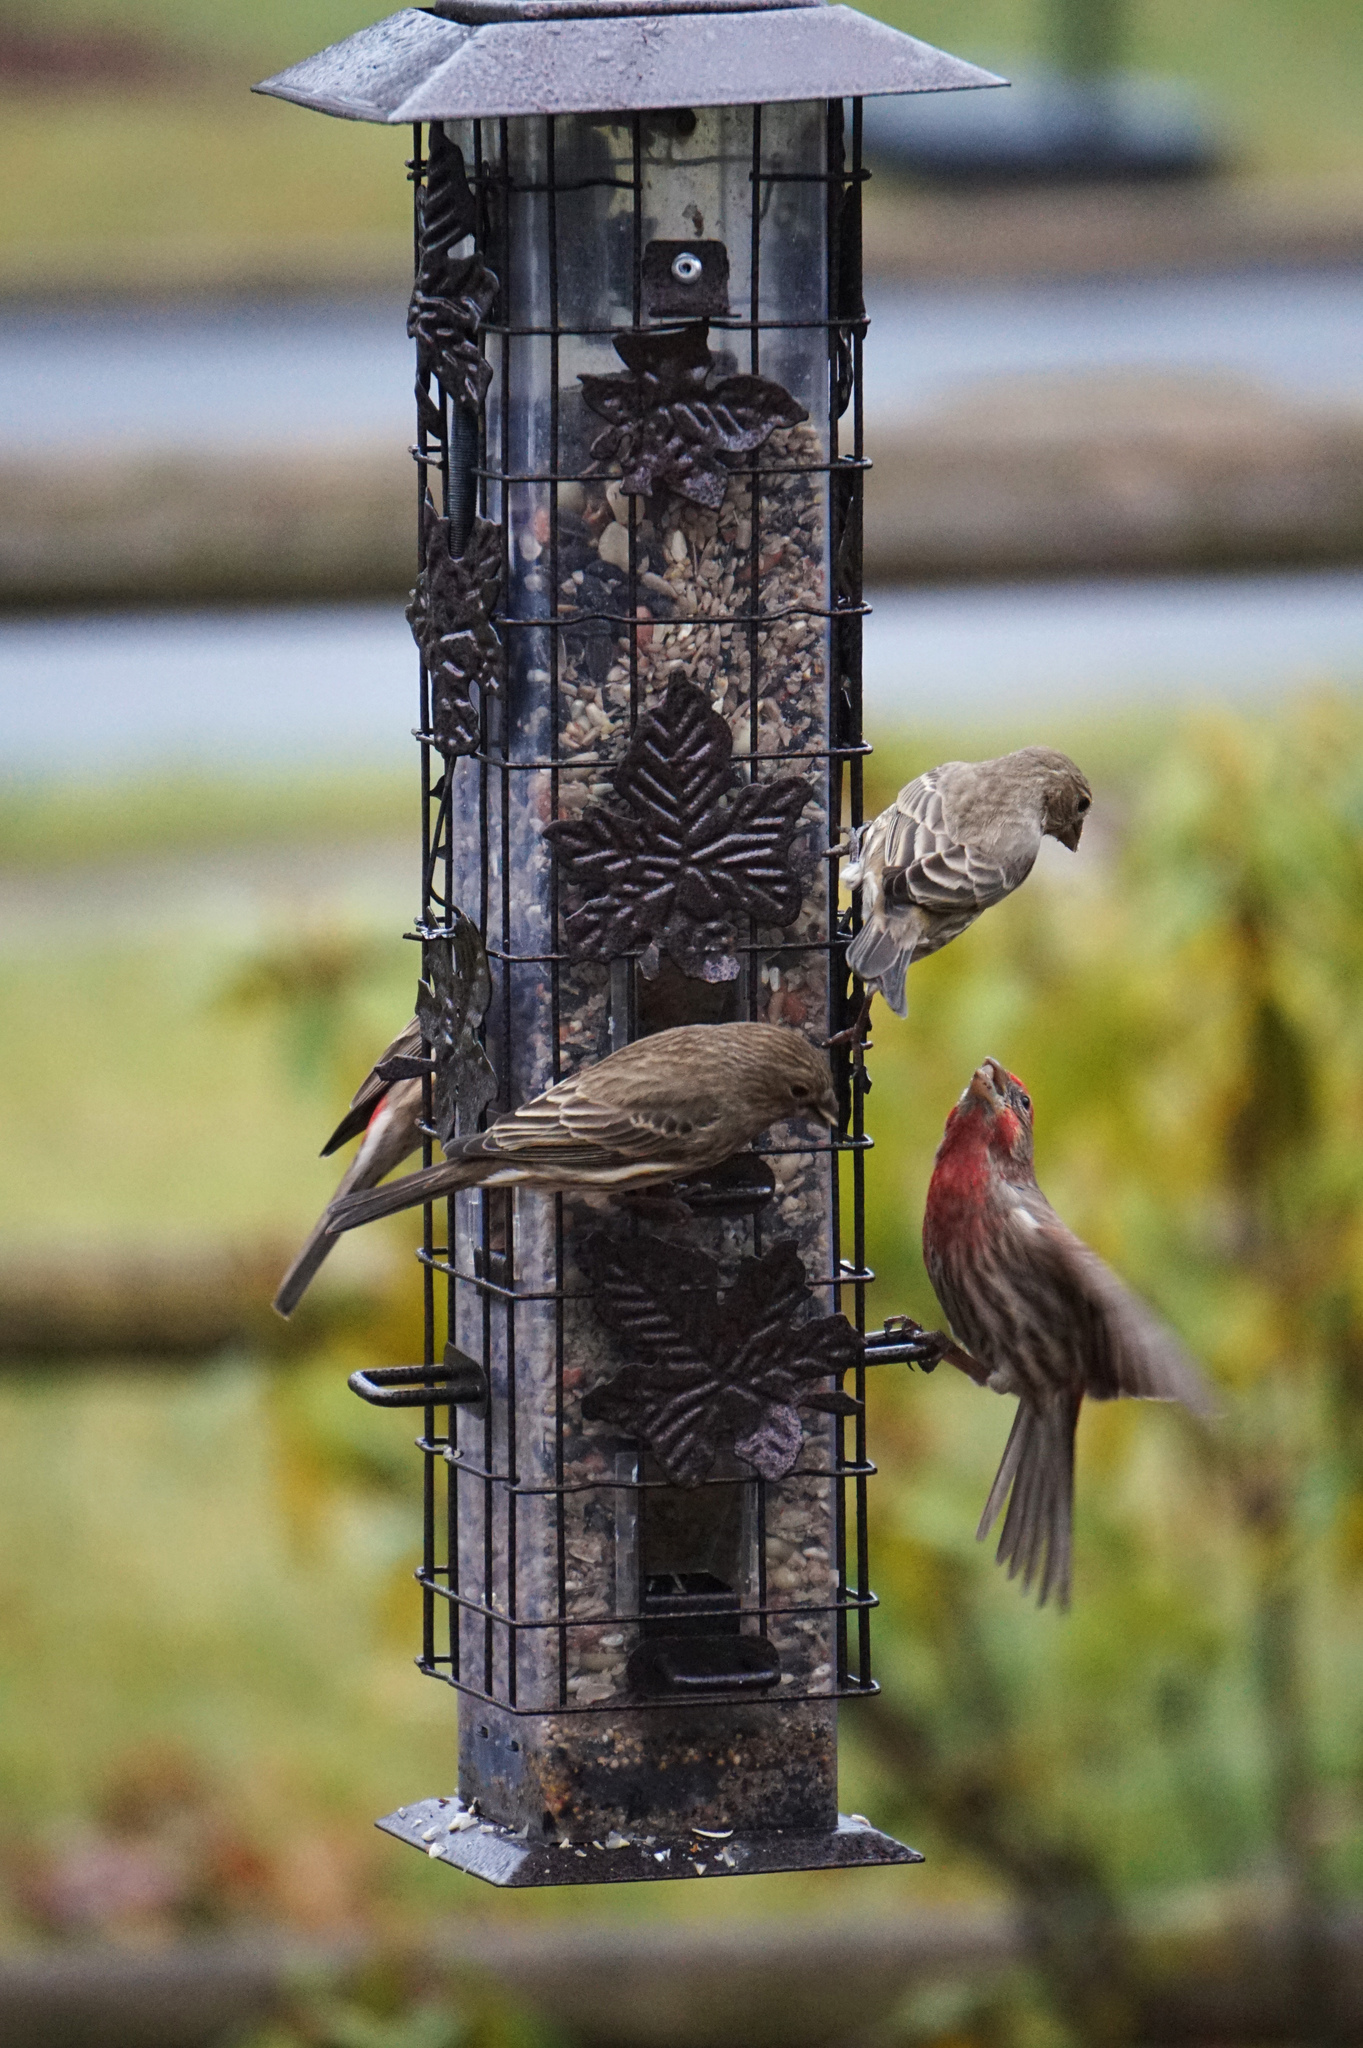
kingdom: Animalia
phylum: Chordata
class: Aves
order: Passeriformes
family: Fringillidae
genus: Haemorhous
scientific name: Haemorhous mexicanus
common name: House finch
